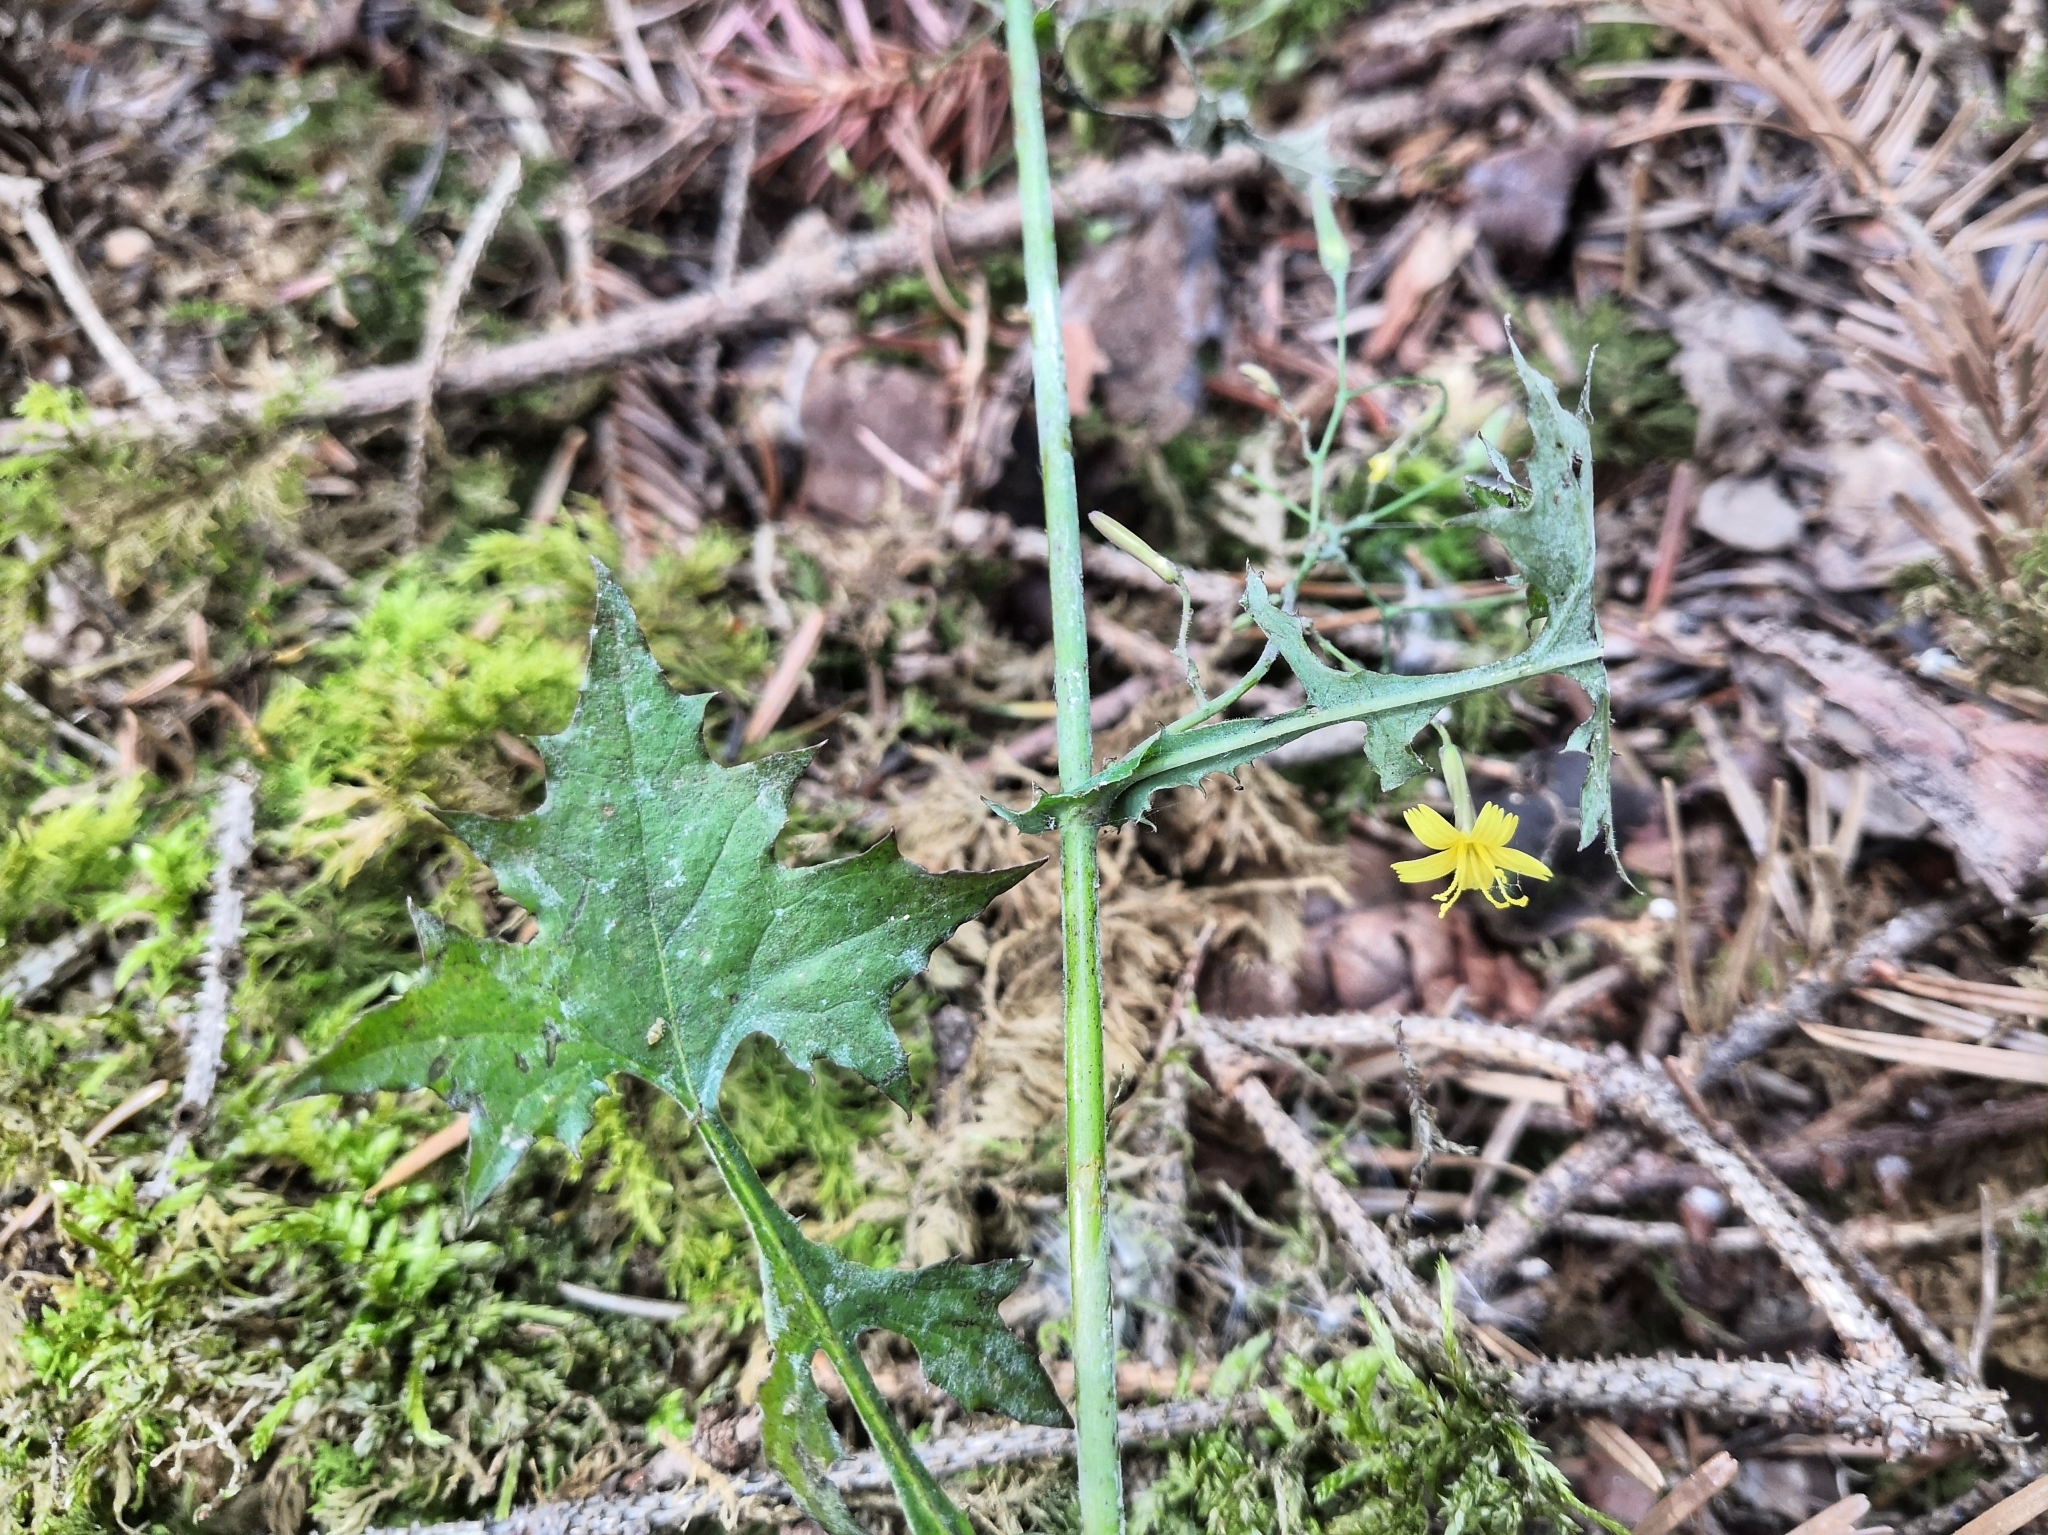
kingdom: Plantae
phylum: Tracheophyta
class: Magnoliopsida
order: Asterales
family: Asteraceae
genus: Mycelis
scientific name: Mycelis muralis
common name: Wall lettuce
